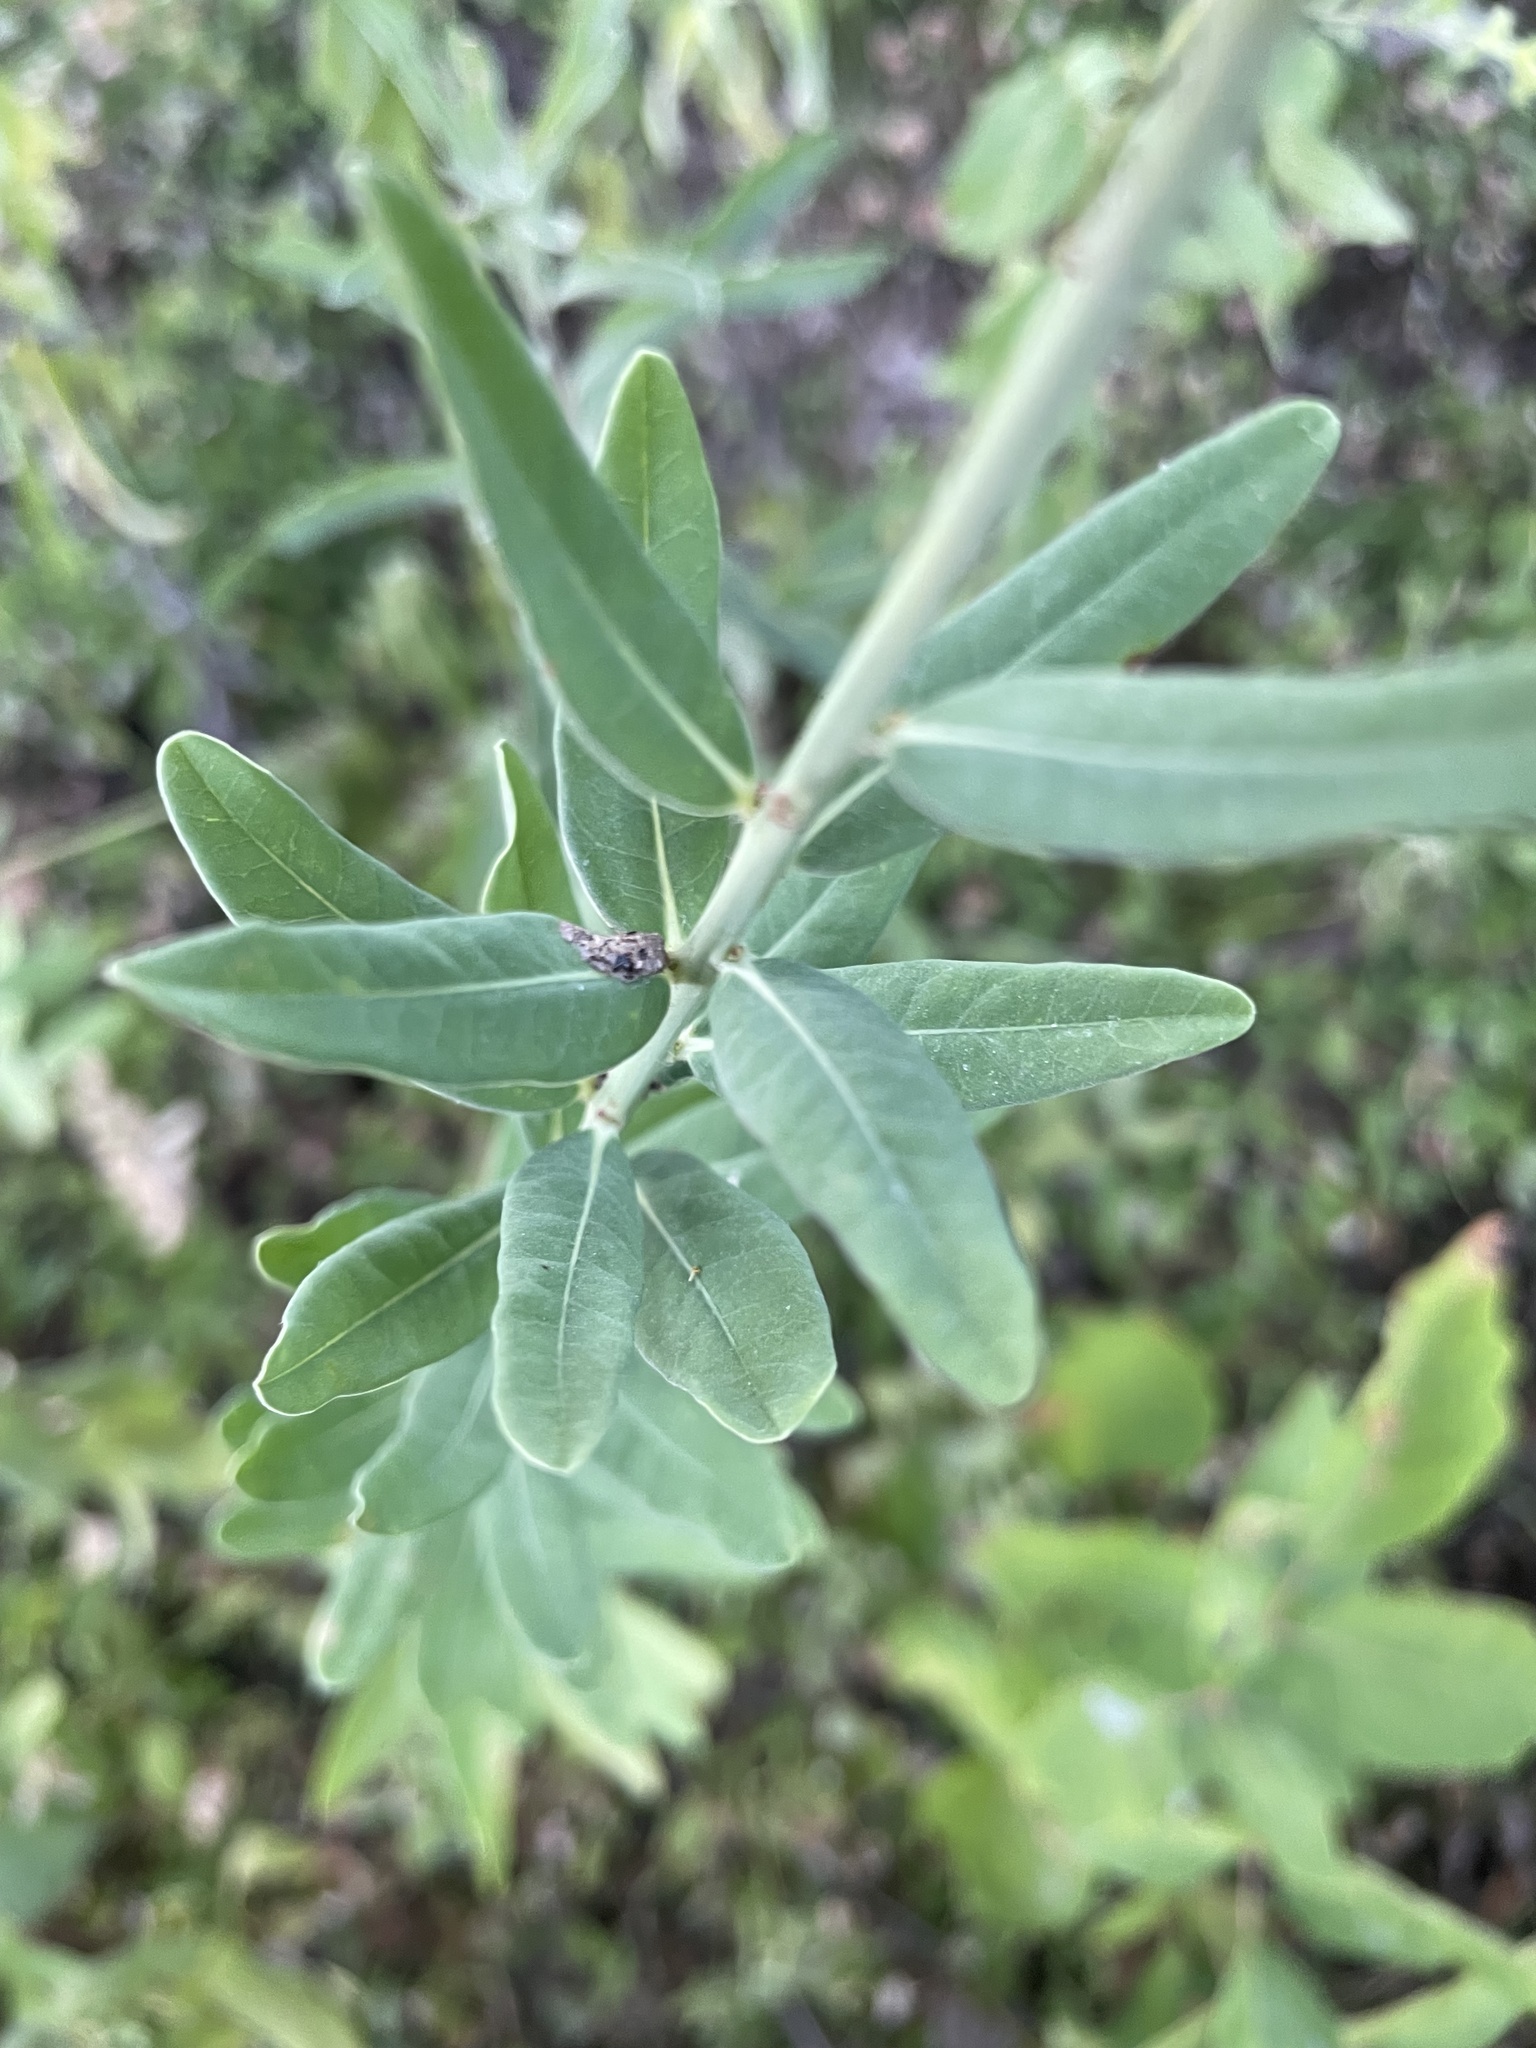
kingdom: Plantae
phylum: Tracheophyta
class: Magnoliopsida
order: Malpighiales
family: Euphorbiaceae
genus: Euphorbia
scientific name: Euphorbia corollata
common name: Flowering spurge
